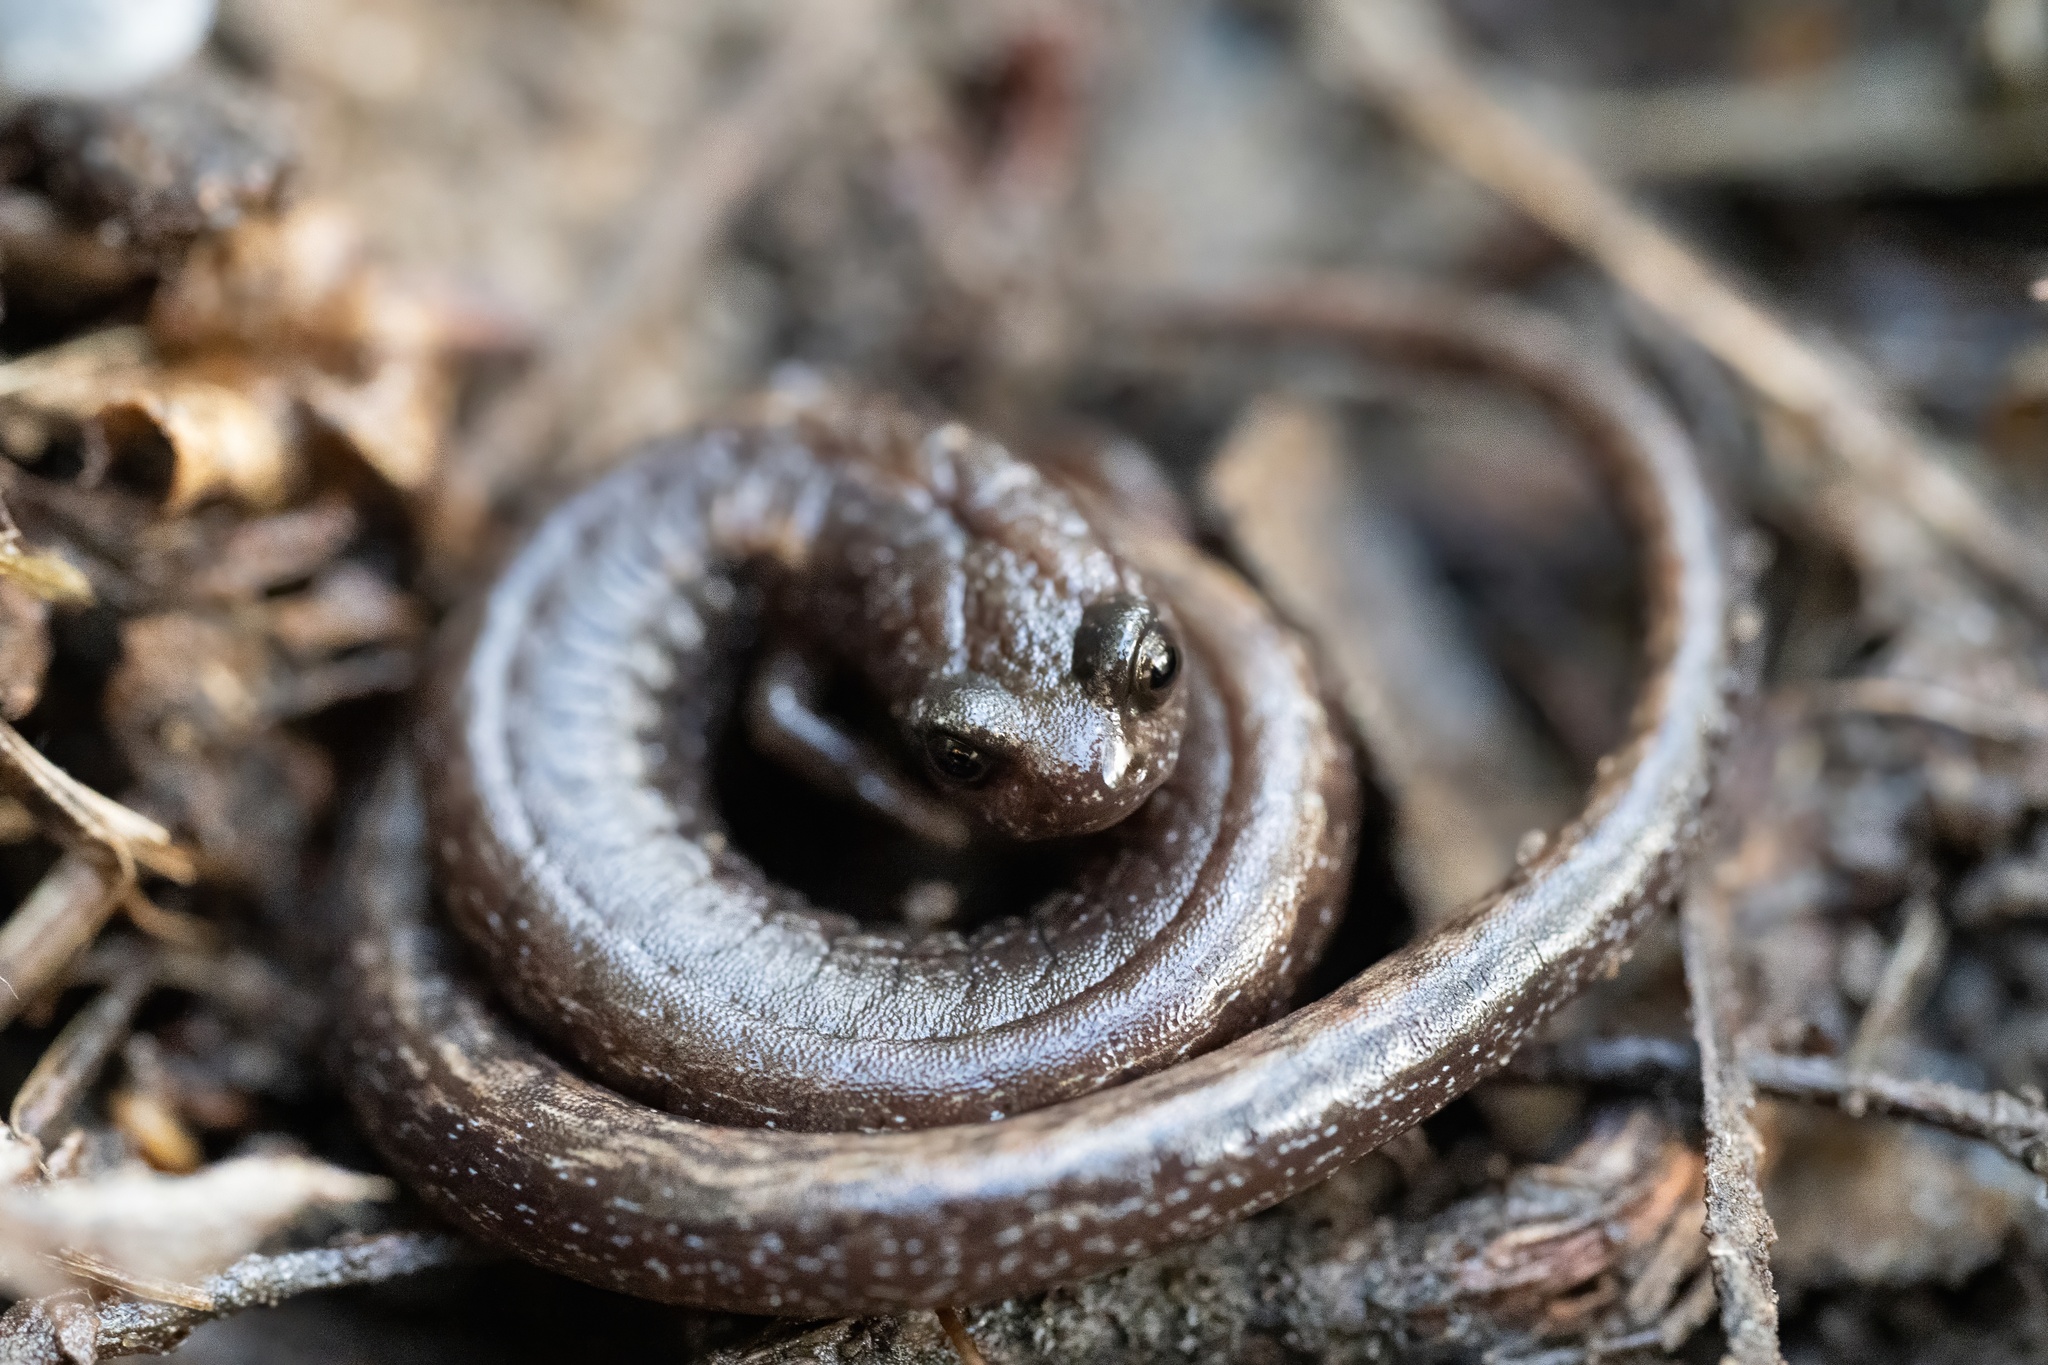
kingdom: Animalia
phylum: Chordata
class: Amphibia
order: Caudata
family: Plethodontidae
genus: Batrachoseps
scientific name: Batrachoseps attenuatus
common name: California slender salamander
